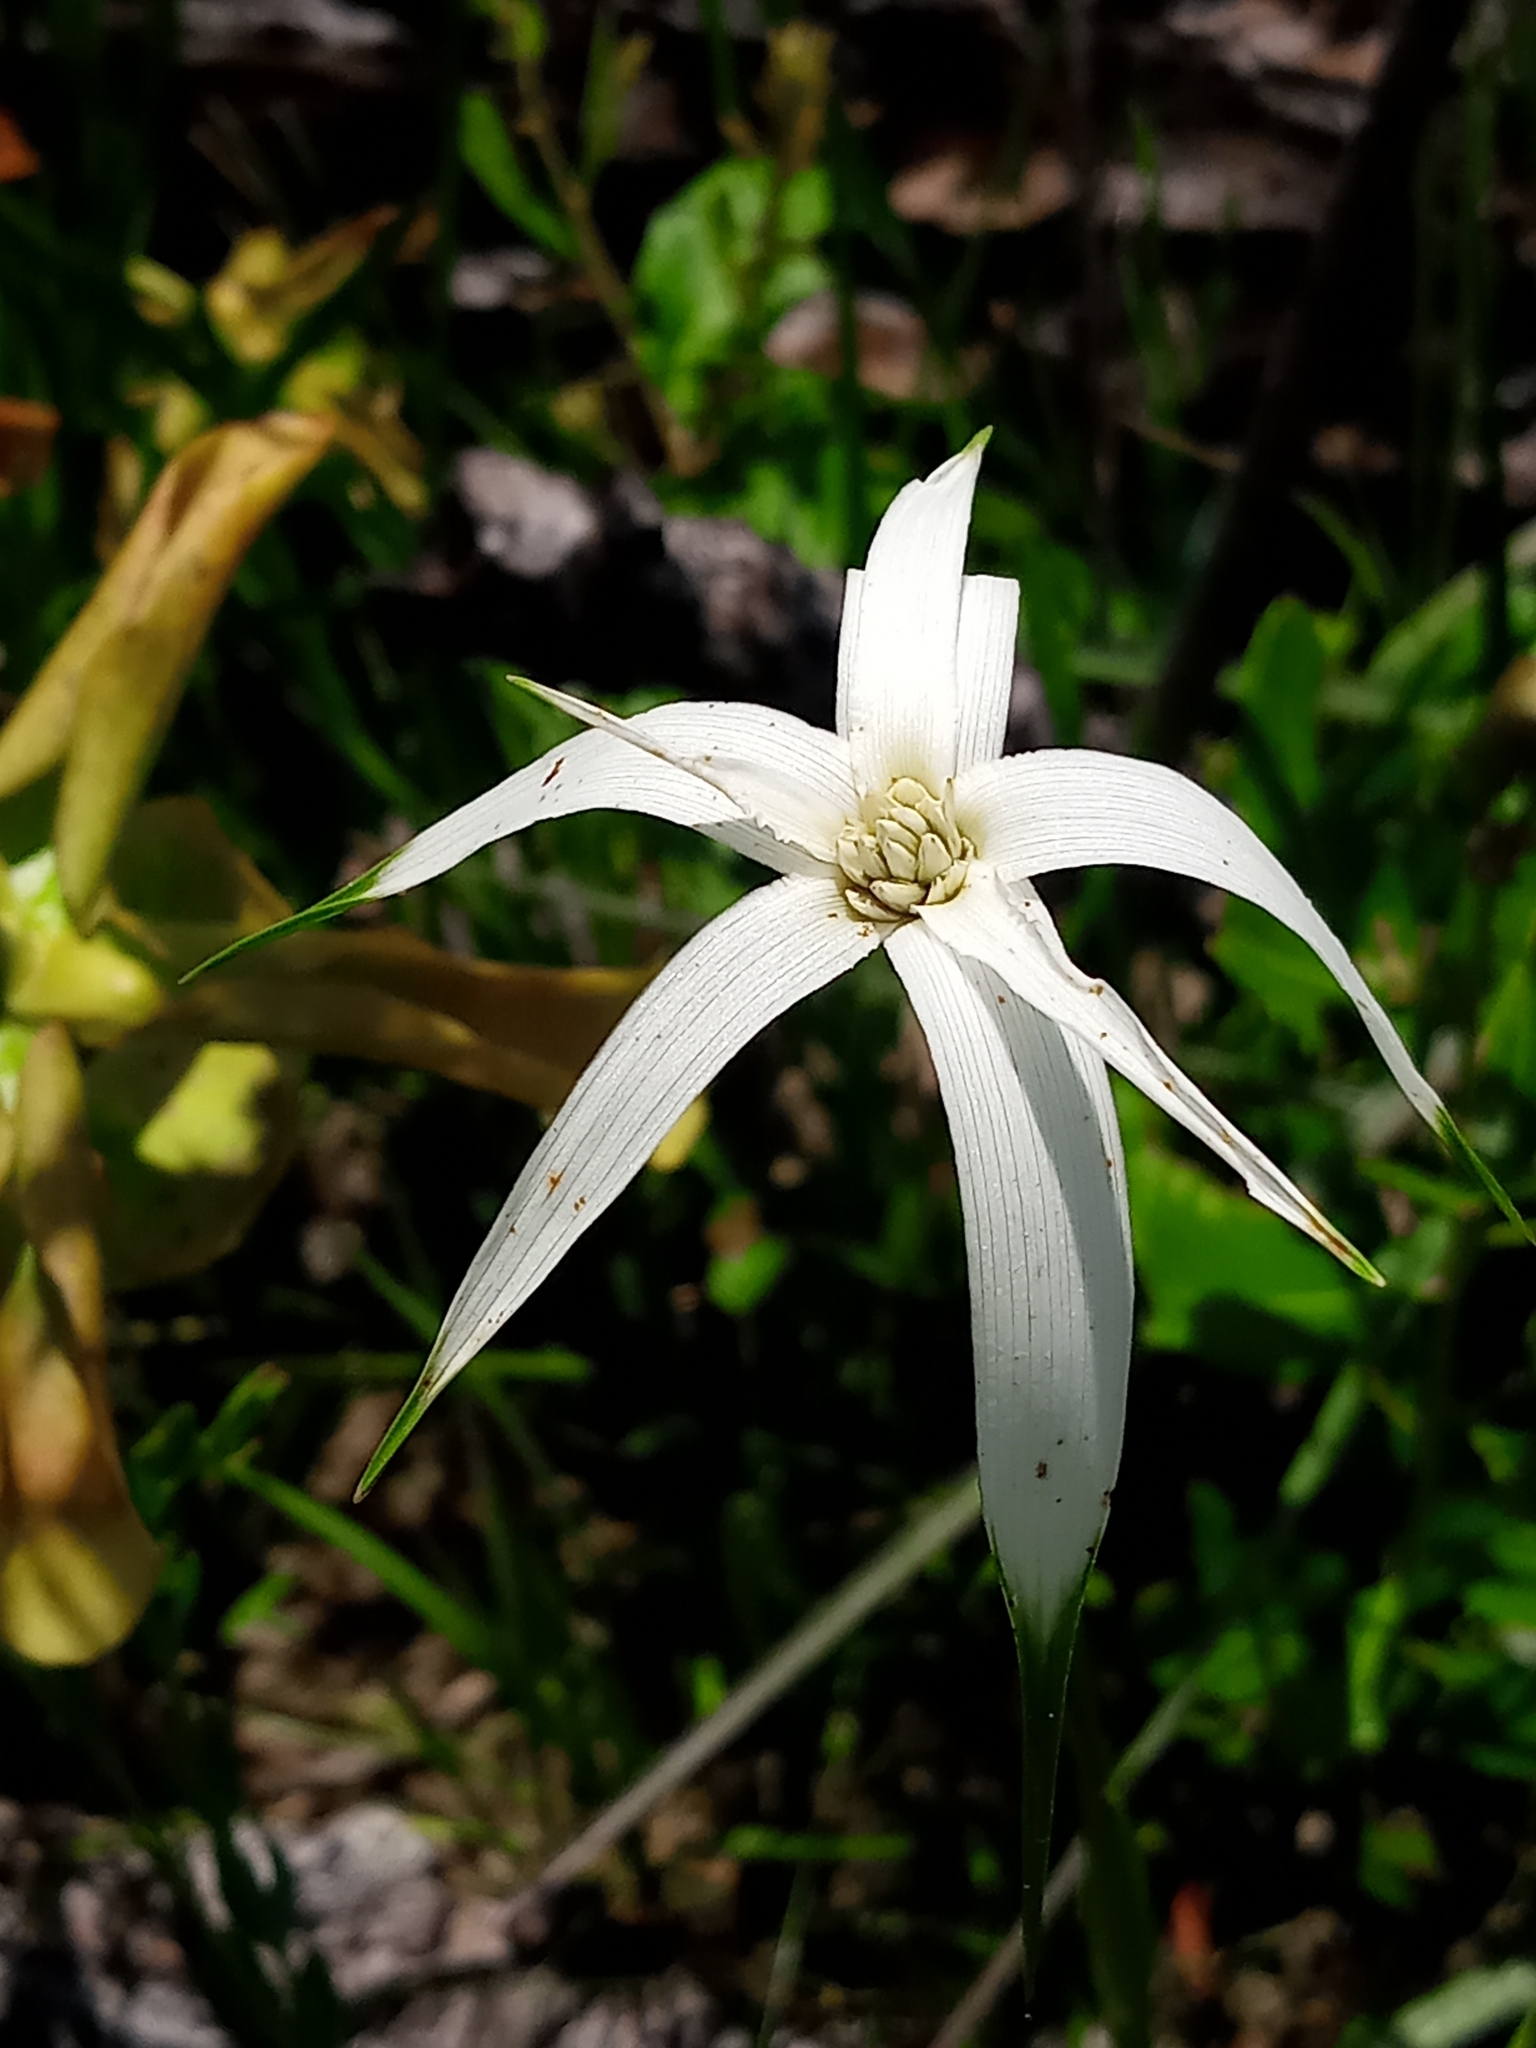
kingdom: Plantae
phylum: Tracheophyta
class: Liliopsida
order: Poales
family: Cyperaceae
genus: Rhynchospora
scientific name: Rhynchospora latifolia
